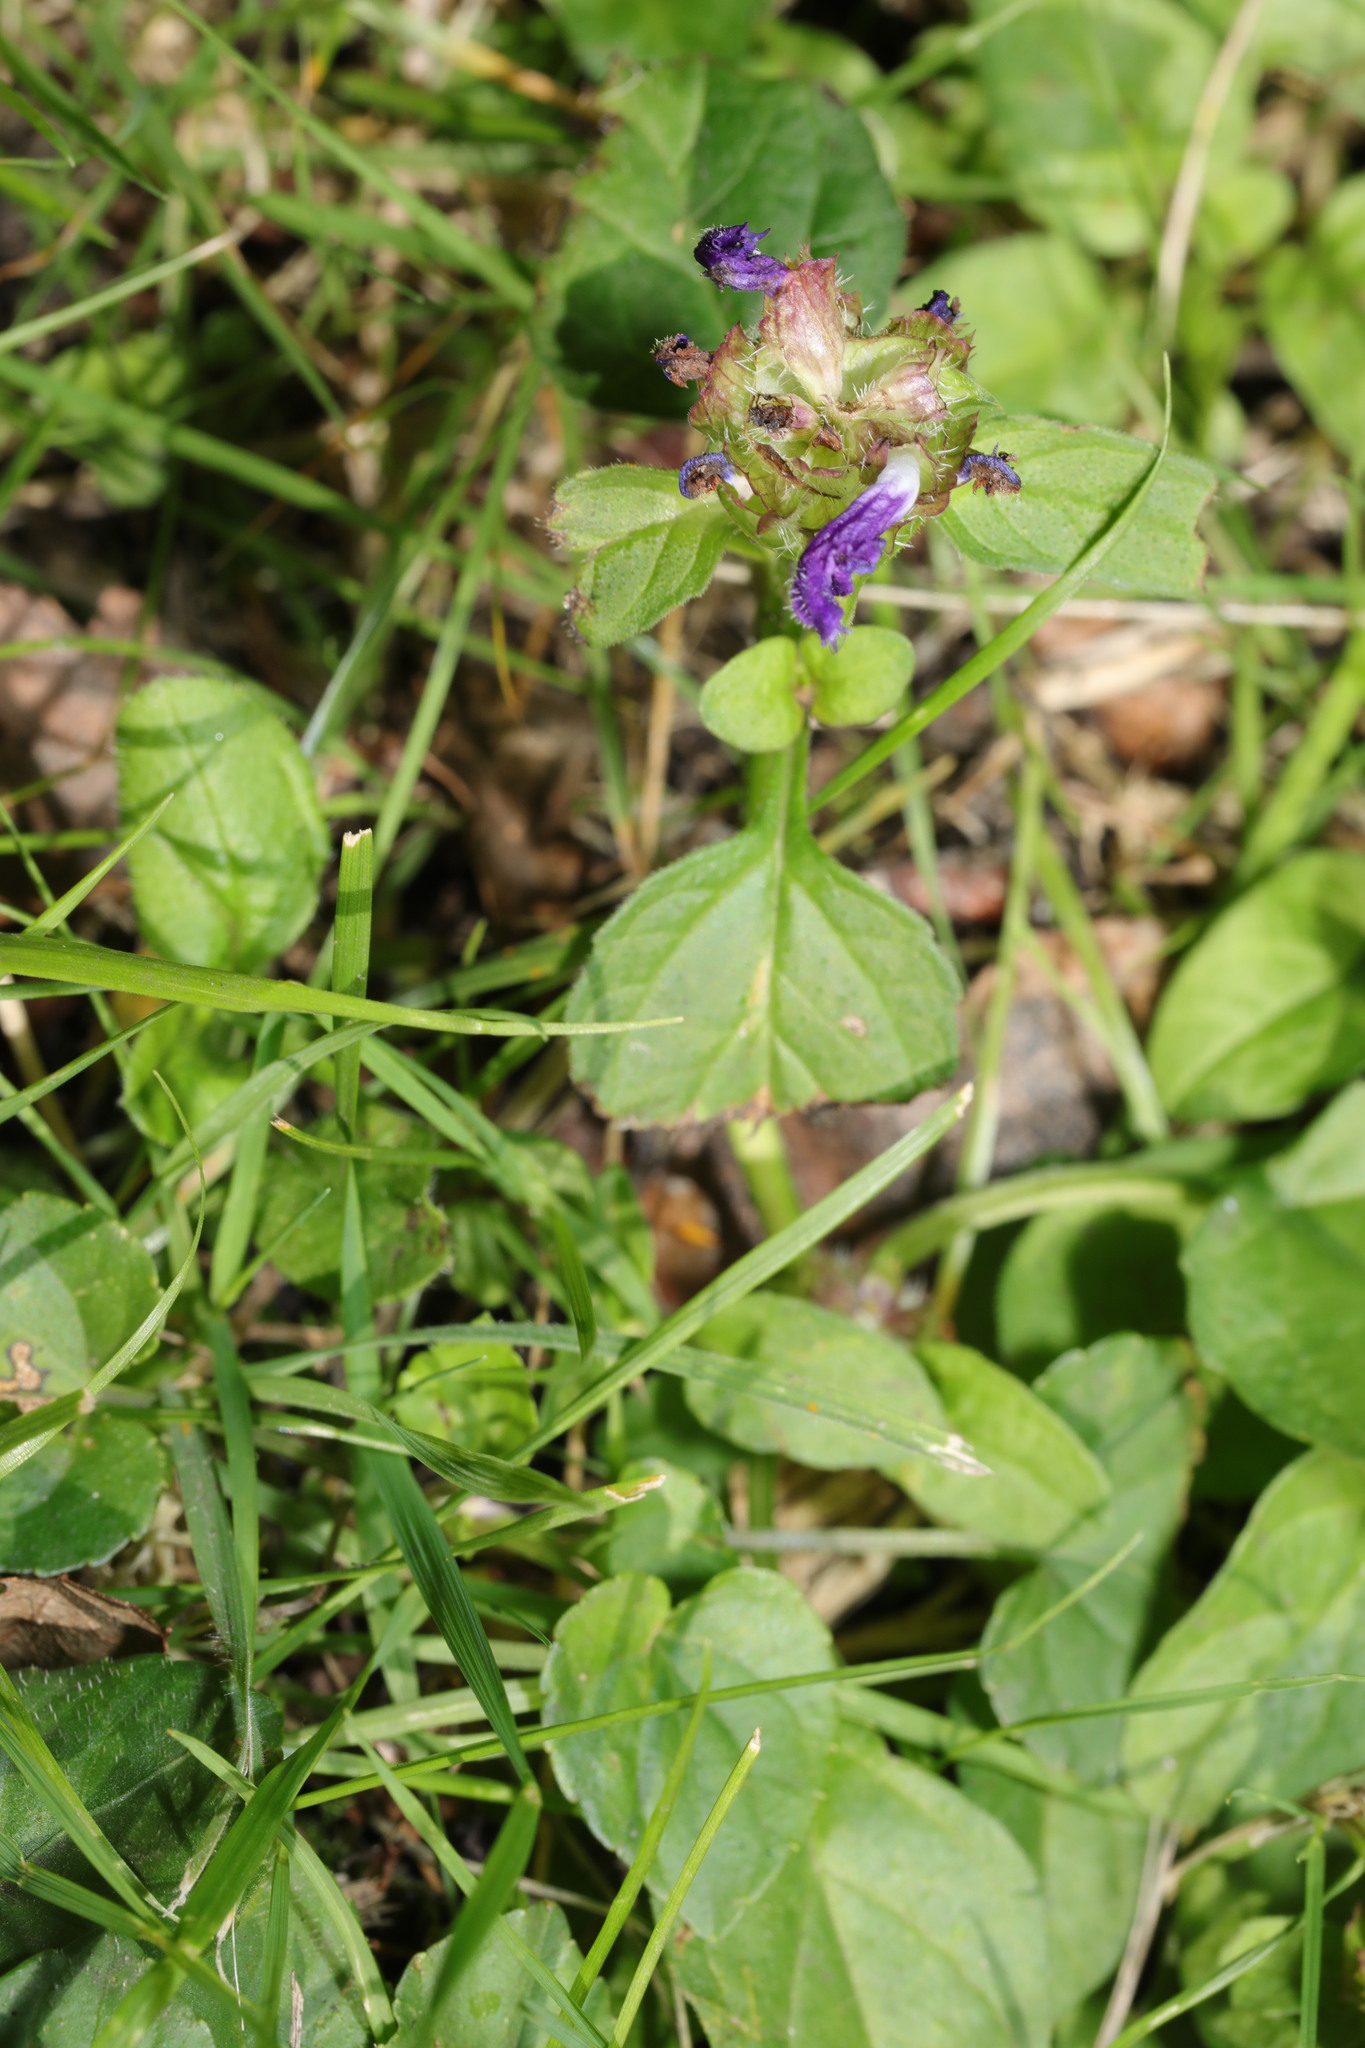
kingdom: Plantae
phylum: Tracheophyta
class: Magnoliopsida
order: Lamiales
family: Lamiaceae
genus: Prunella
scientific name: Prunella vulgaris
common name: Heal-all
